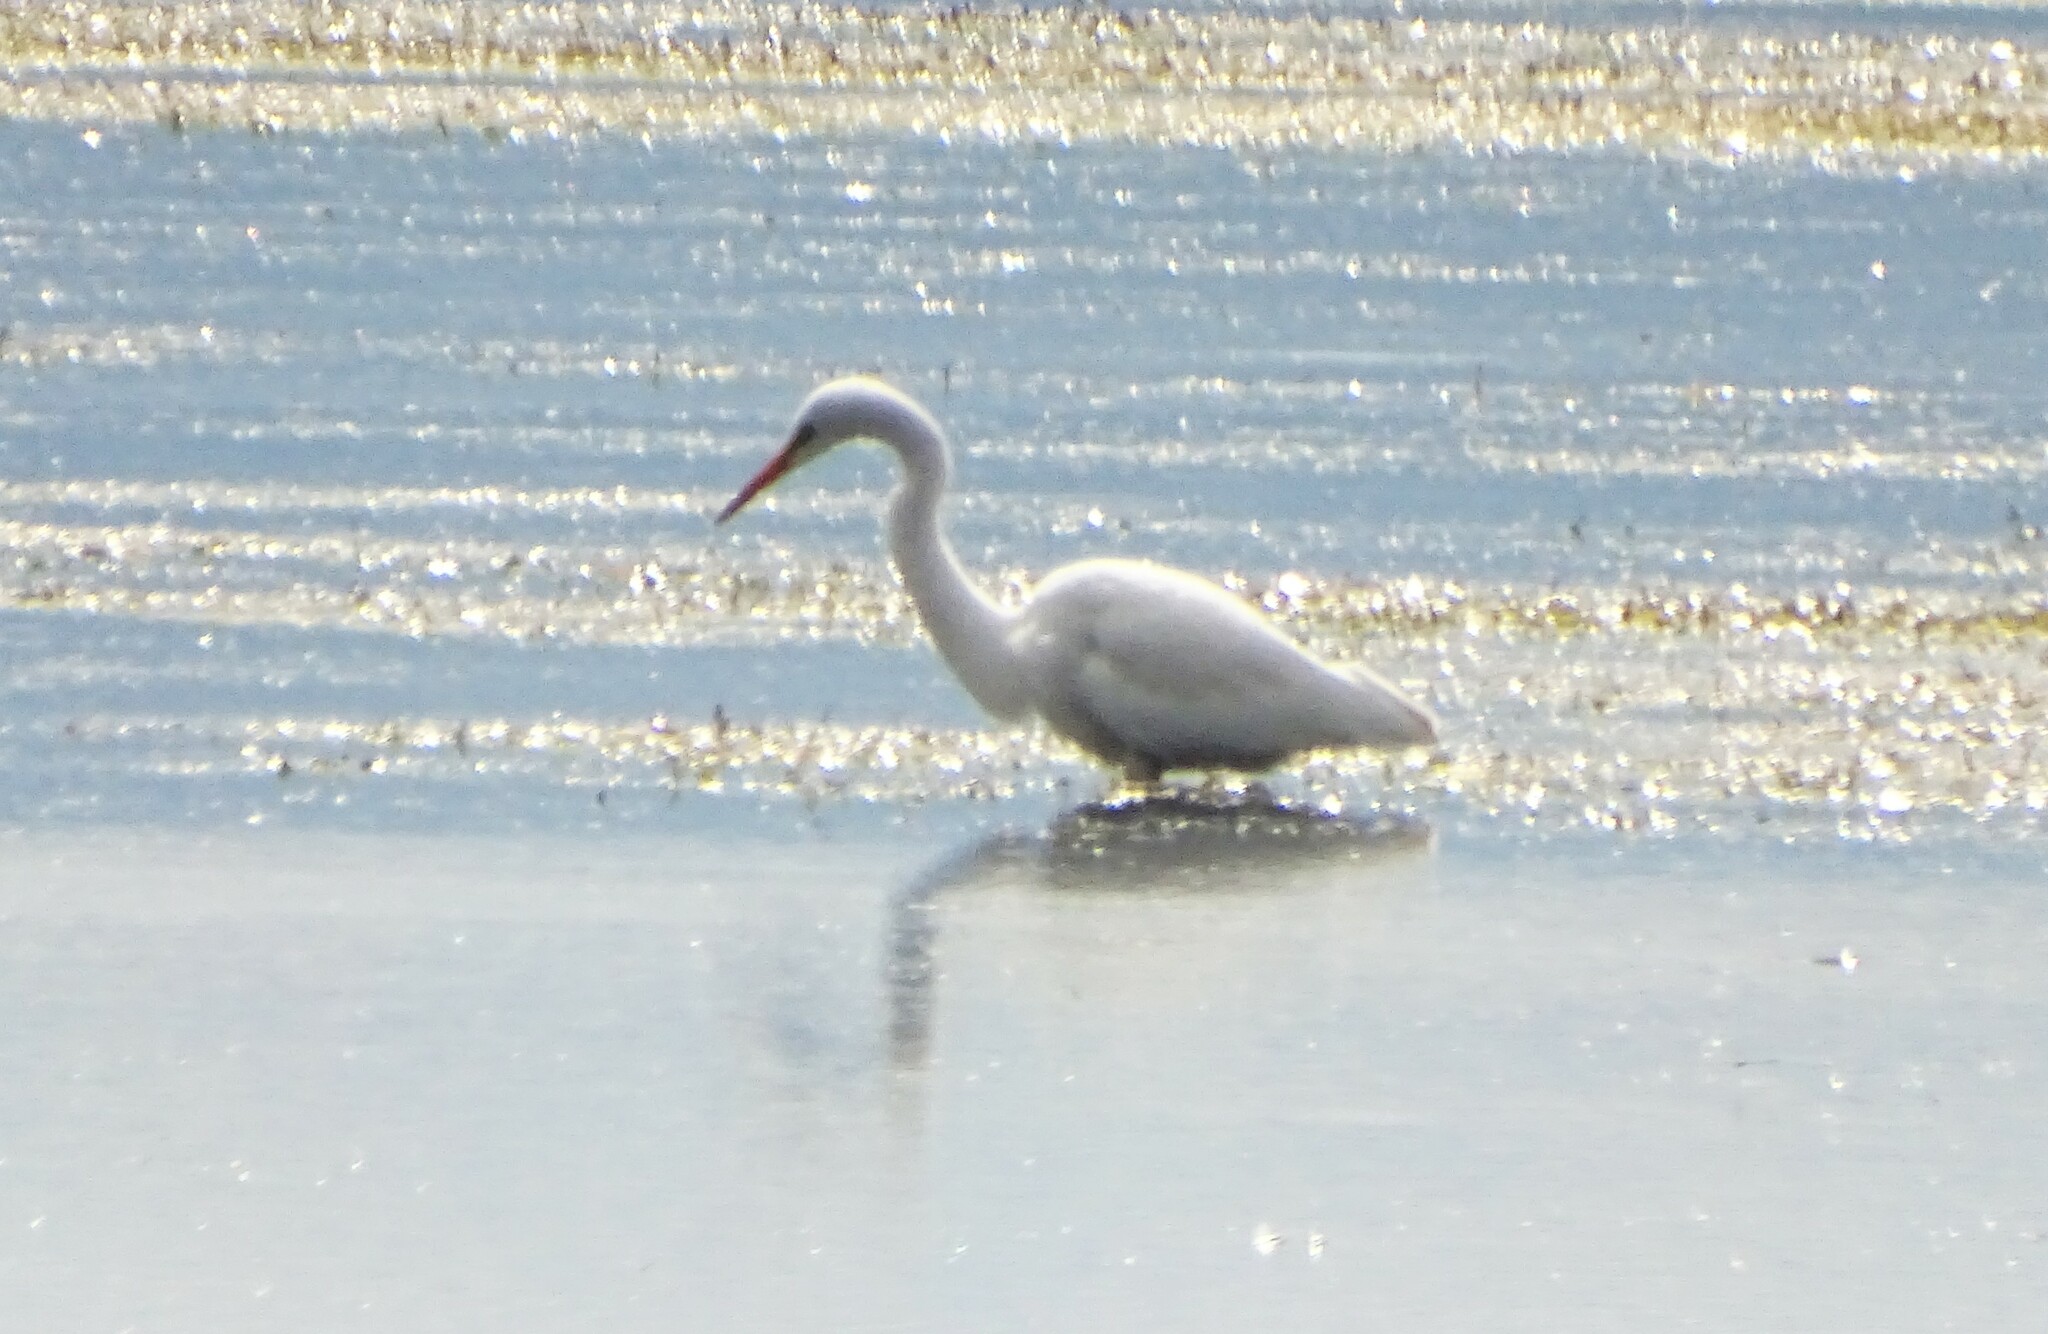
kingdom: Animalia
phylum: Chordata
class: Aves
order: Pelecaniformes
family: Ardeidae
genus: Ardea
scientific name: Ardea alba
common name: Great egret
